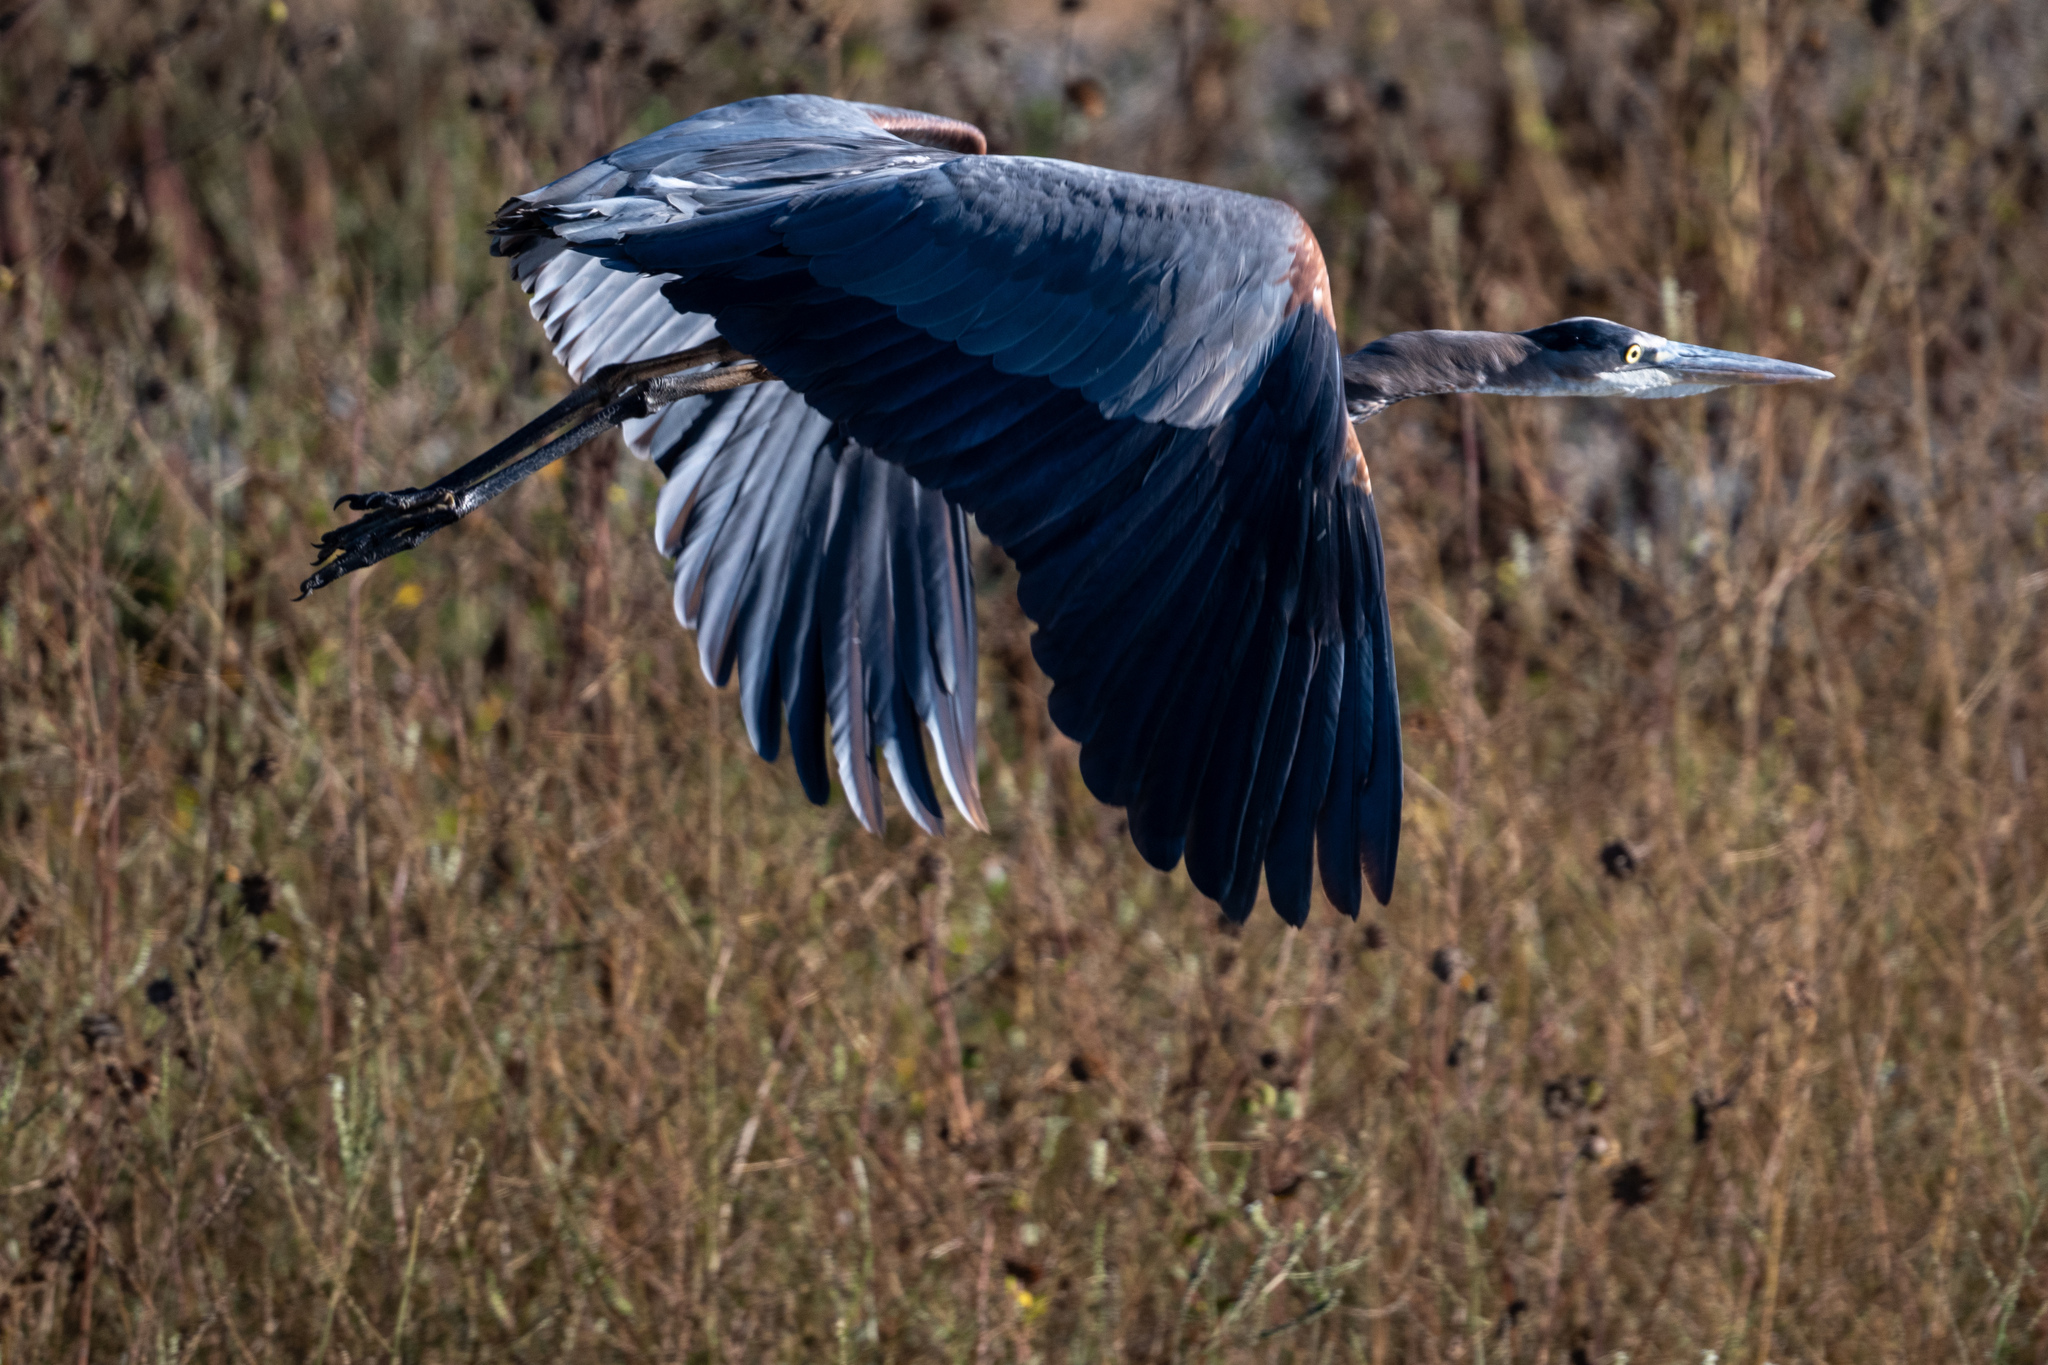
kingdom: Animalia
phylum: Chordata
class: Aves
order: Pelecaniformes
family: Ardeidae
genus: Ardea
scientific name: Ardea herodias
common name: Great blue heron
